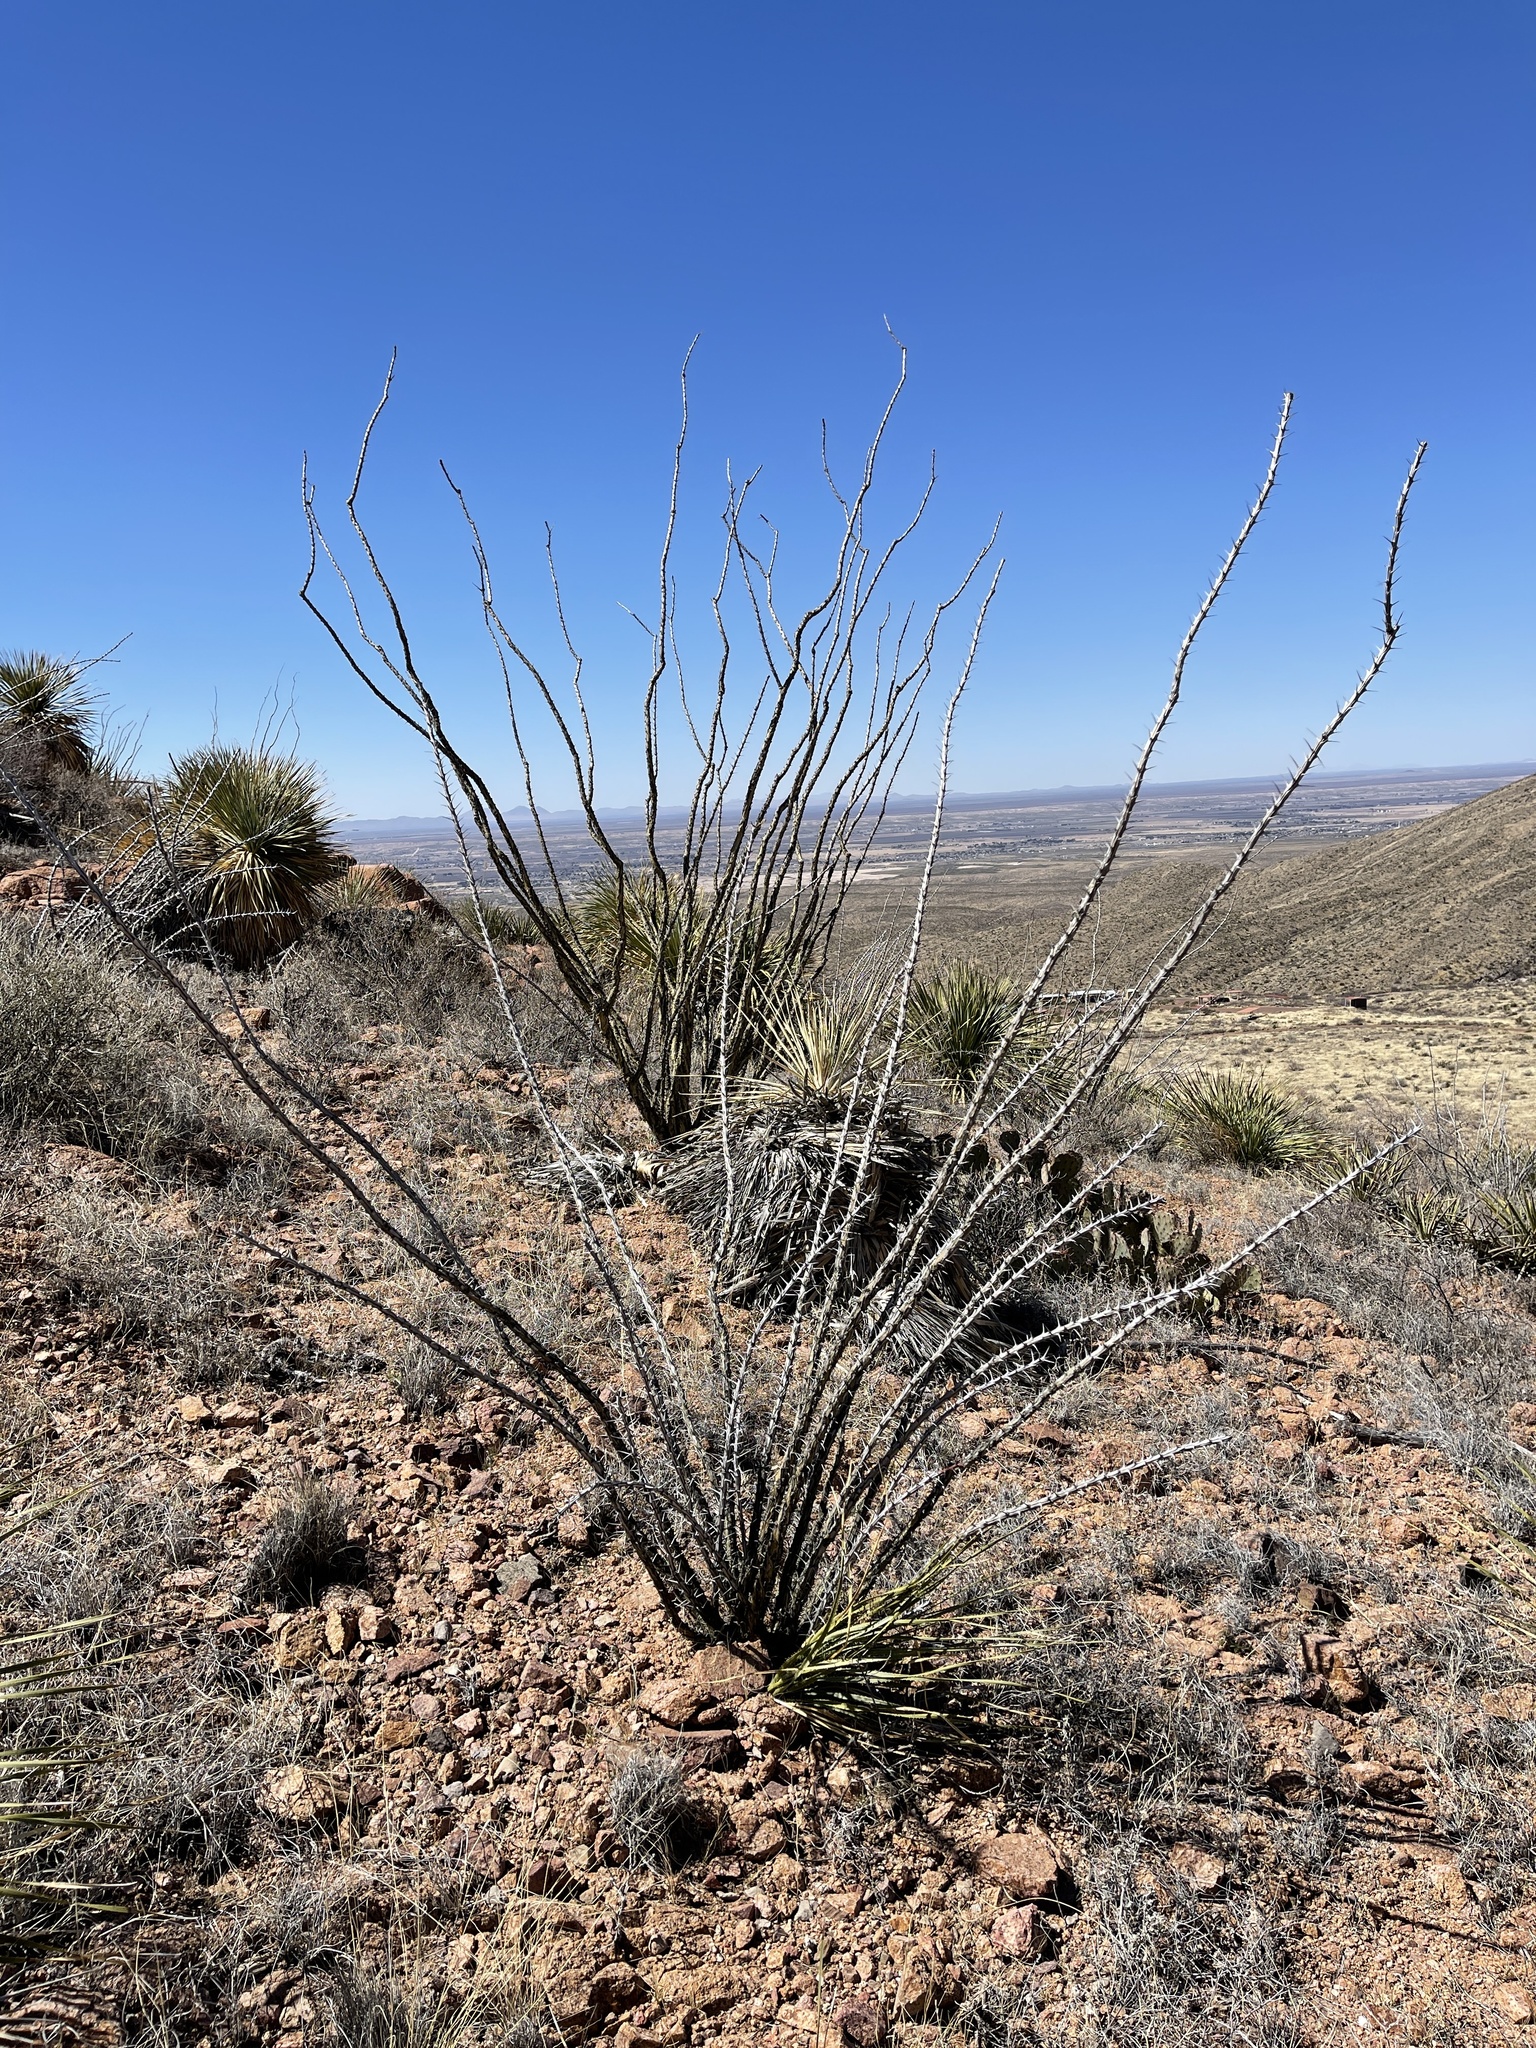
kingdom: Plantae
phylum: Tracheophyta
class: Magnoliopsida
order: Ericales
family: Fouquieriaceae
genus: Fouquieria
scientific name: Fouquieria splendens
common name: Vine-cactus
